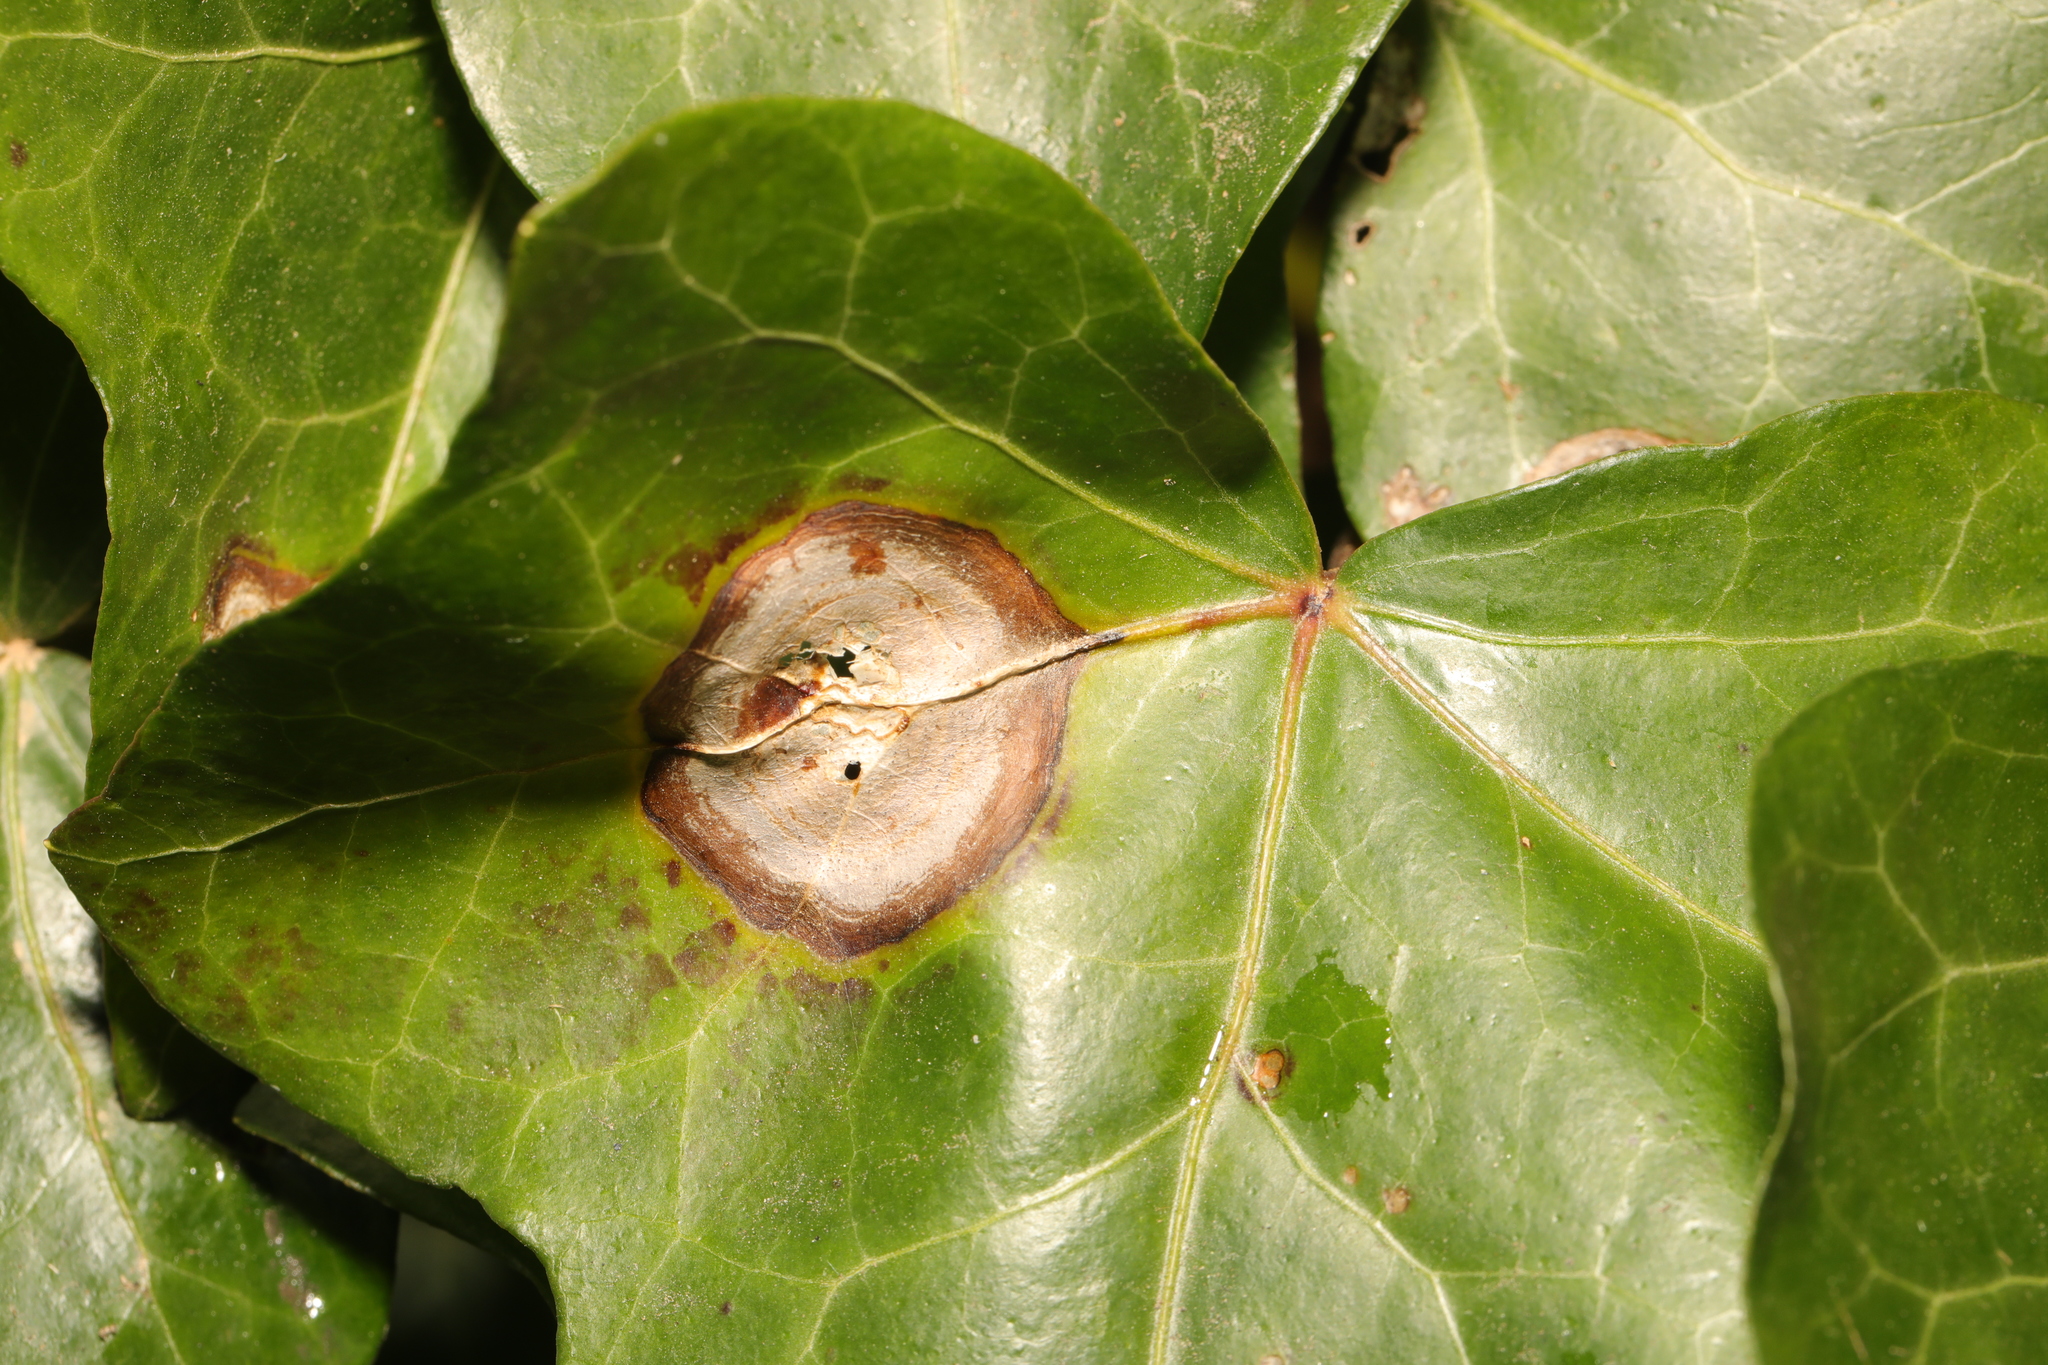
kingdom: Fungi
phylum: Ascomycota
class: Dothideomycetes
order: Pleosporales
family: Didymellaceae
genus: Boeremia
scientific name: Boeremia hedericola
